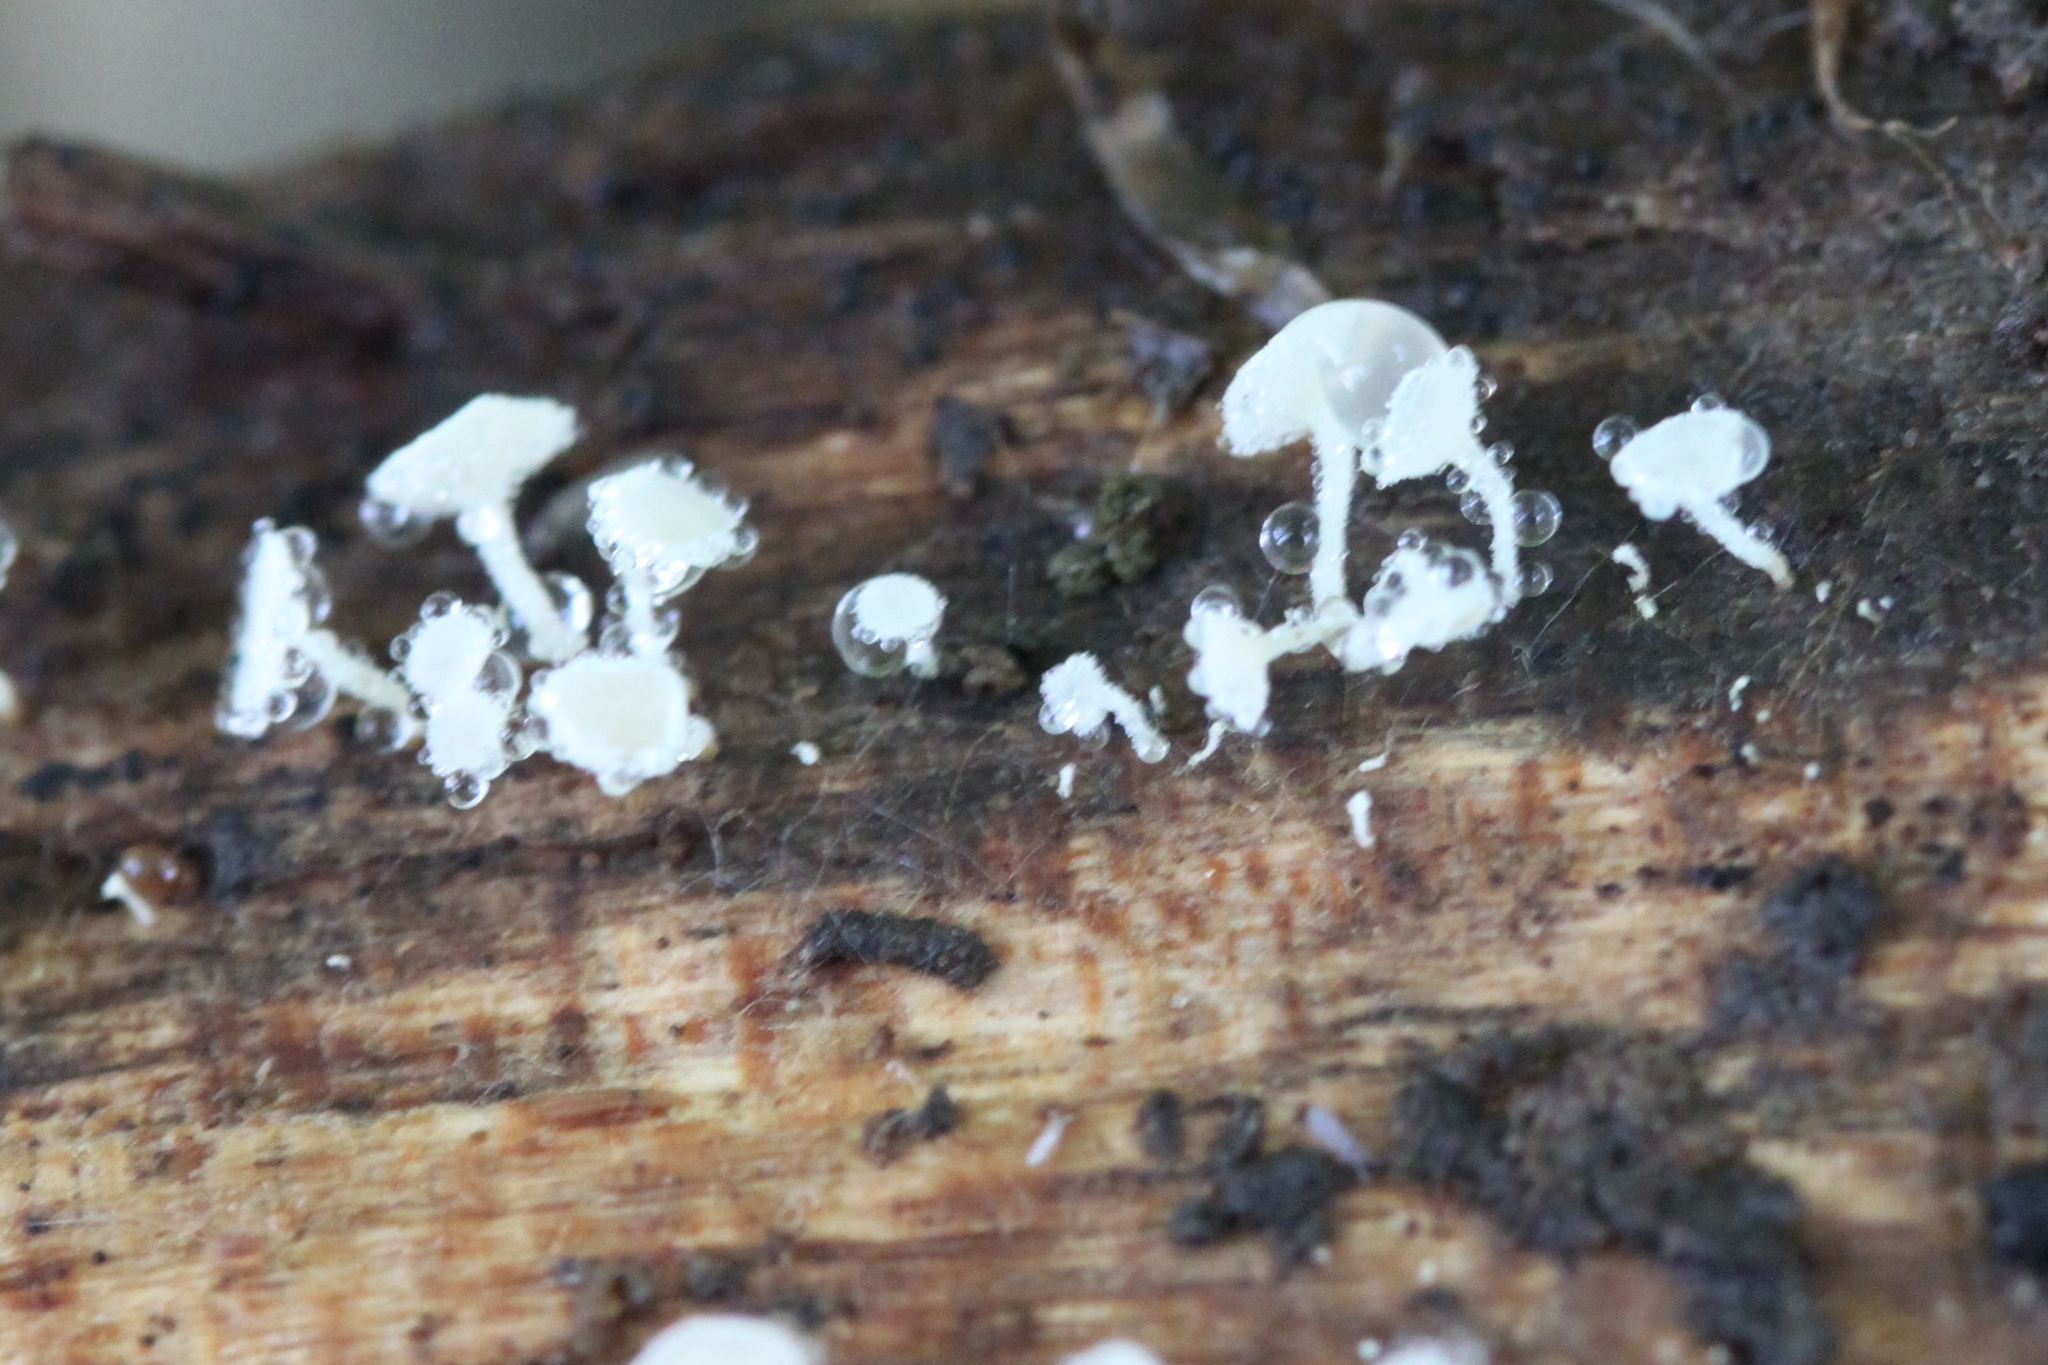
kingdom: Fungi
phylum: Ascomycota
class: Leotiomycetes
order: Helotiales
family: Lachnaceae
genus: Lachnum
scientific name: Lachnum virgineum
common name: Snowy disco
